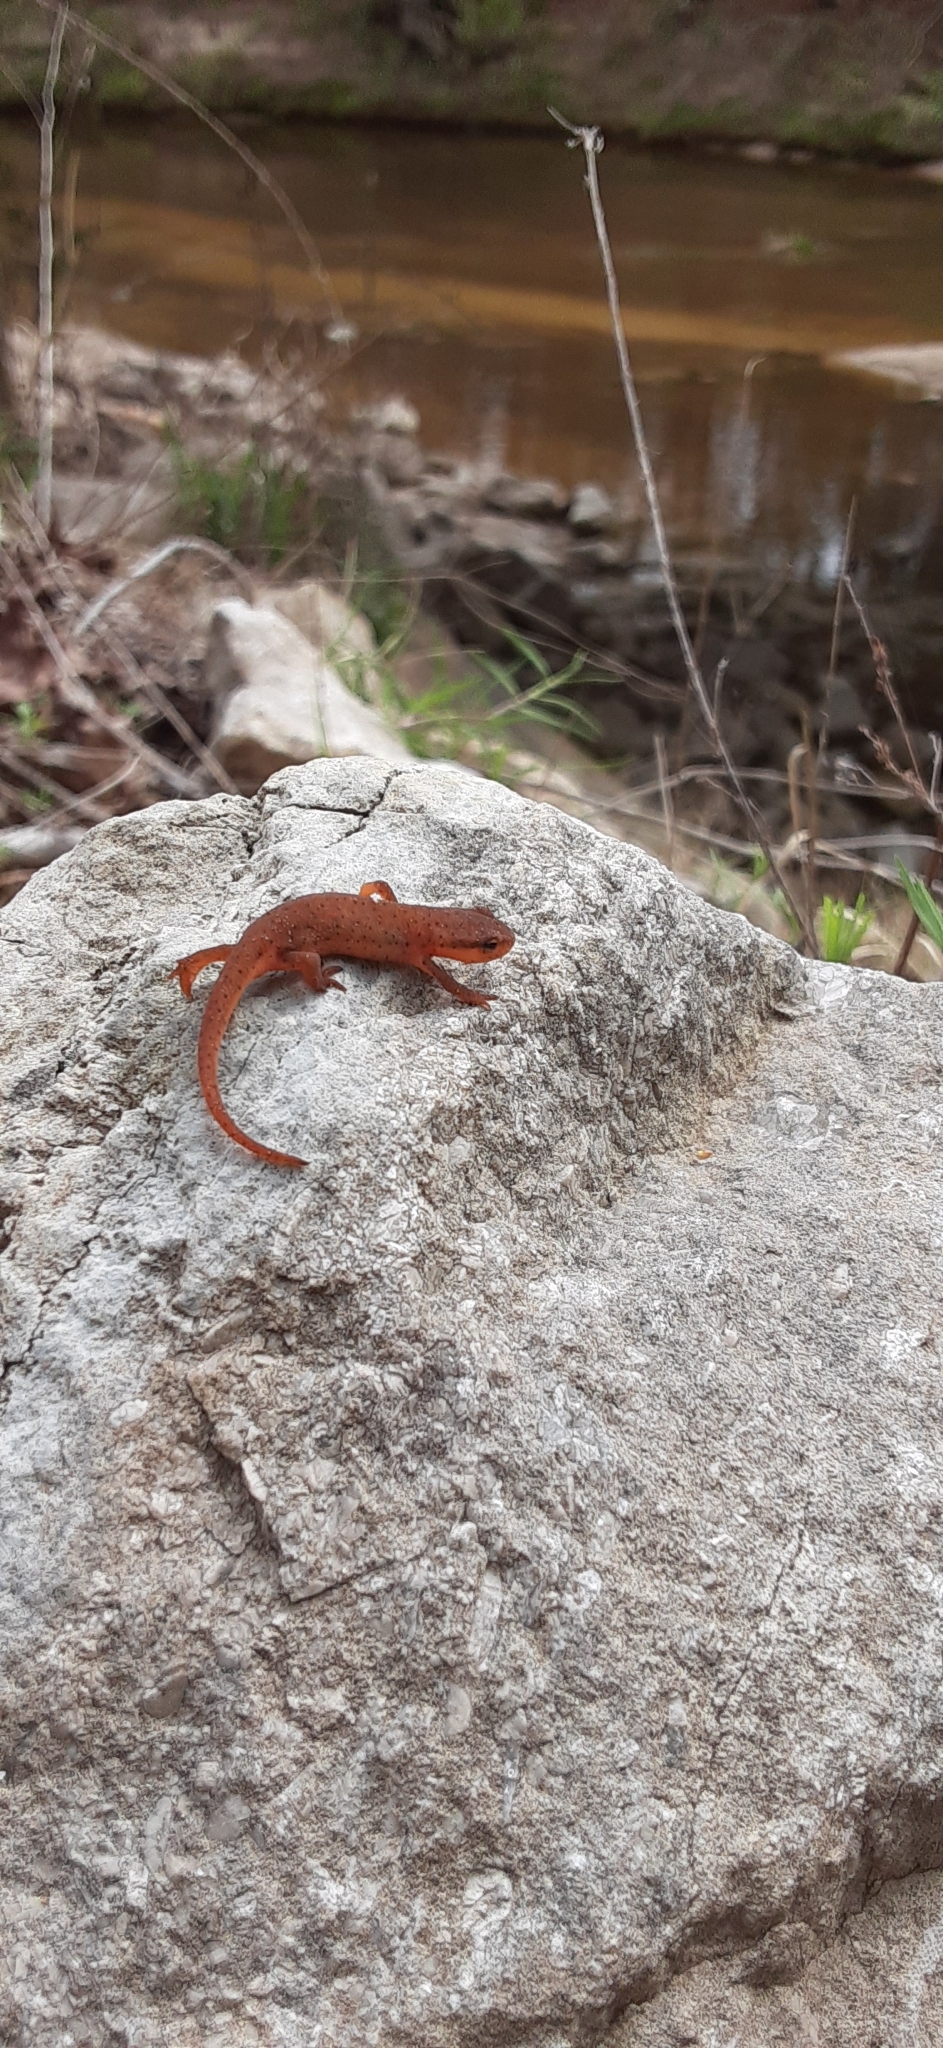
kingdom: Animalia
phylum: Chordata
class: Amphibia
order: Caudata
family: Salamandridae
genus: Notophthalmus
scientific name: Notophthalmus viridescens
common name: Eastern newt
